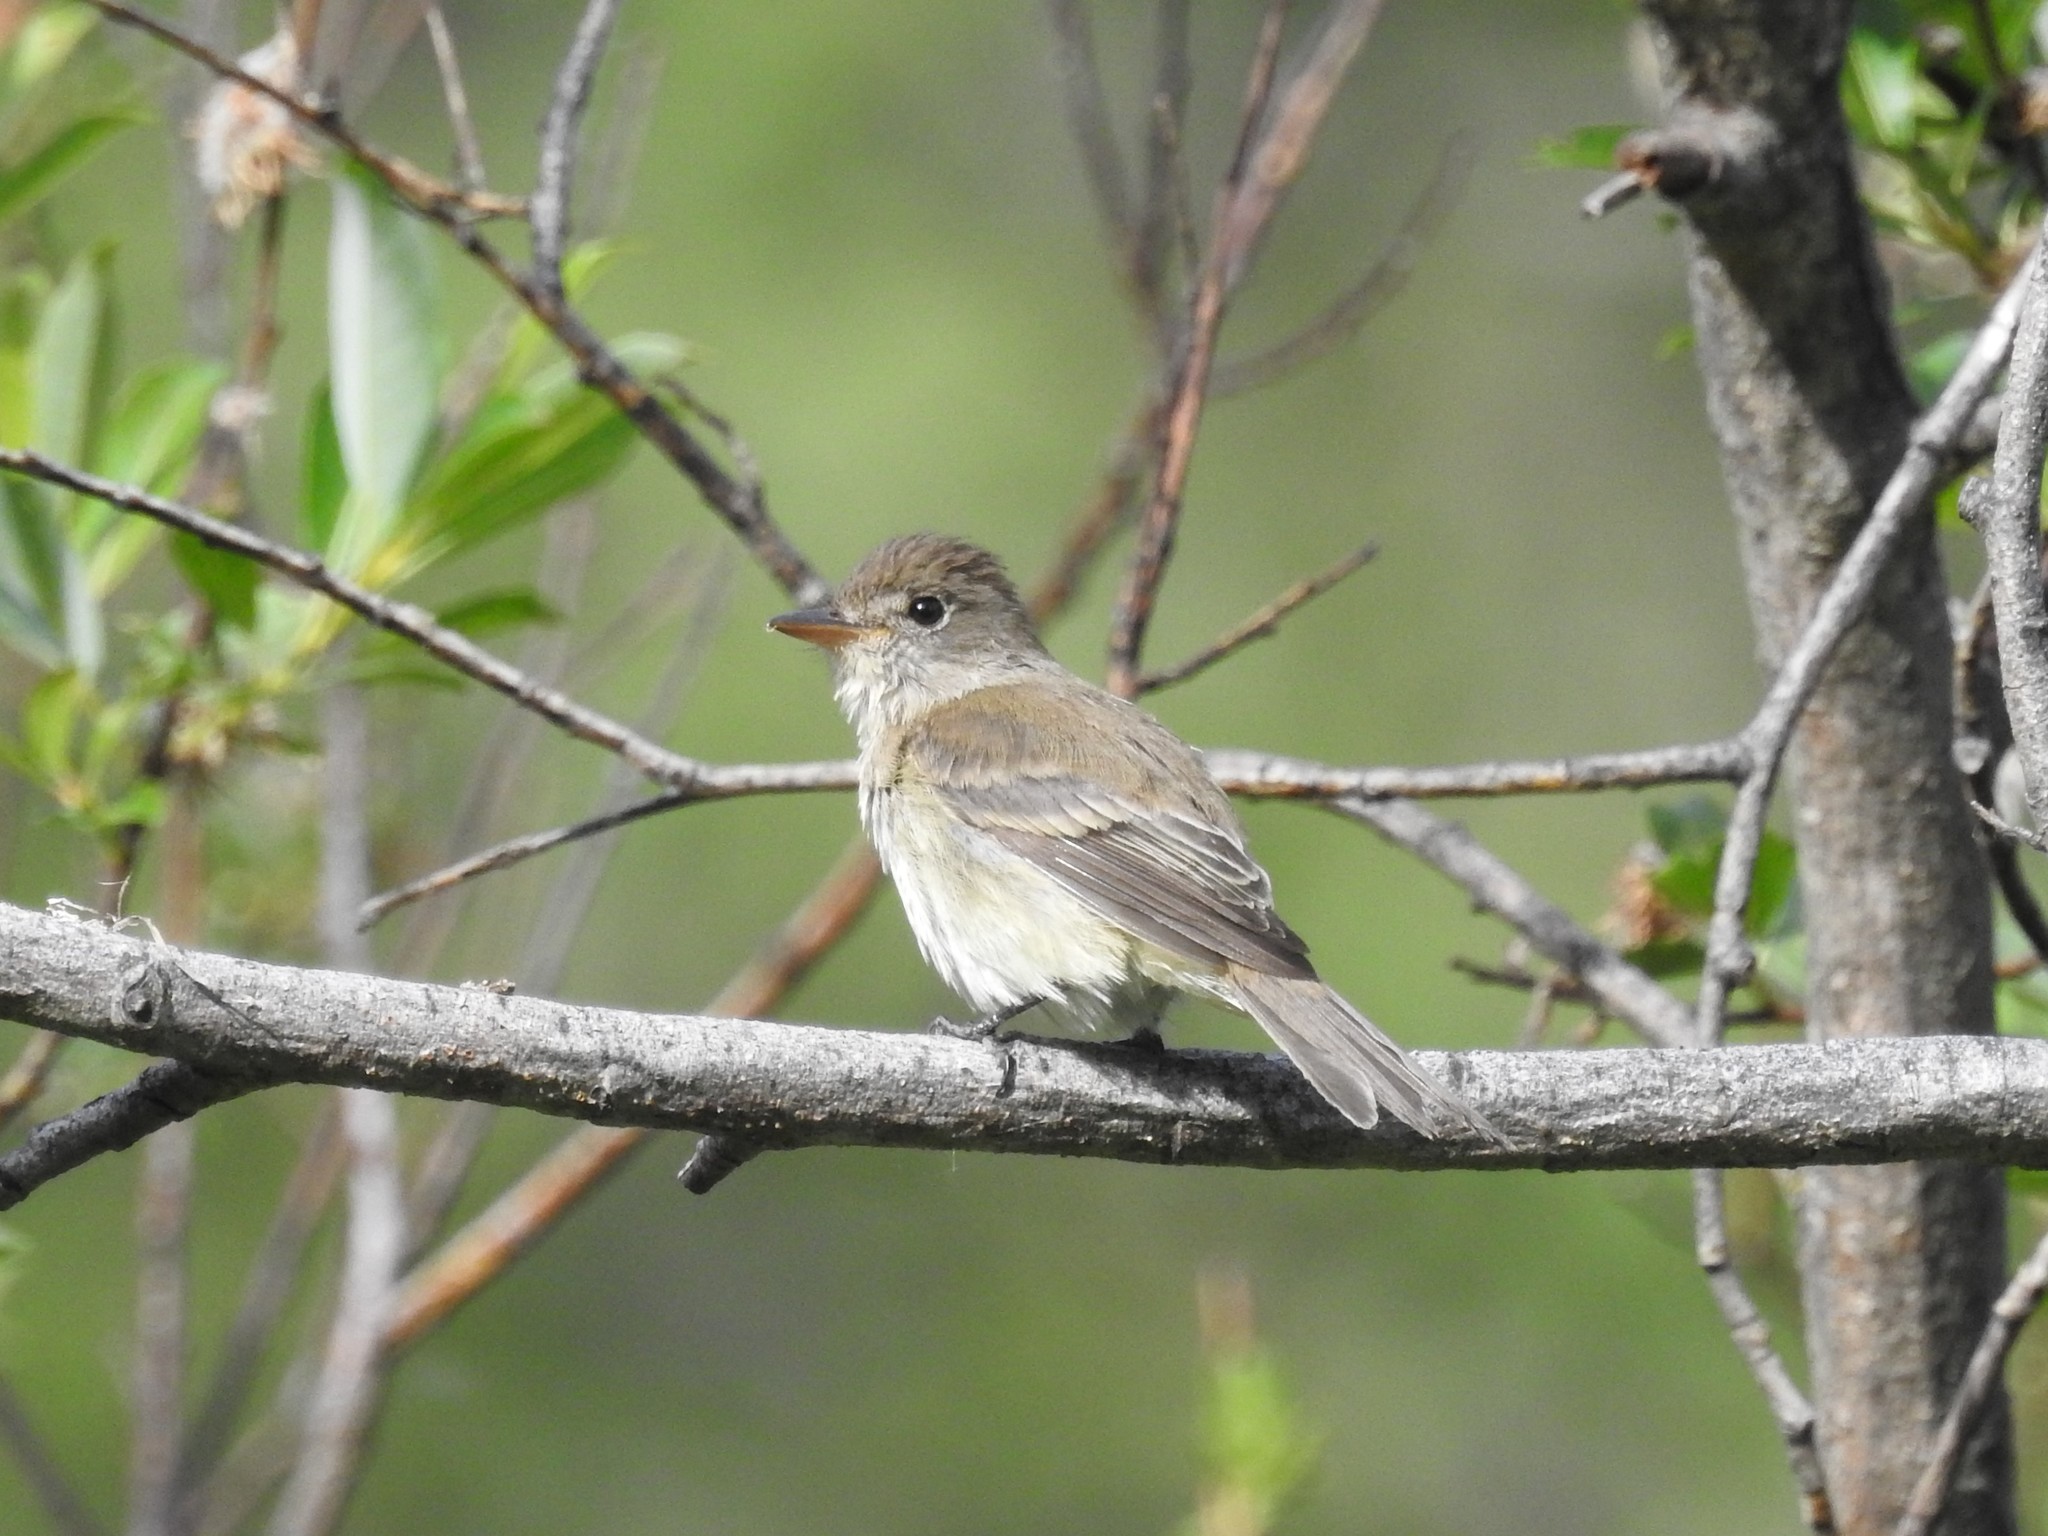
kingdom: Animalia
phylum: Chordata
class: Aves
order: Passeriformes
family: Tyrannidae
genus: Empidonax
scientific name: Empidonax traillii
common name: Willow flycatcher
